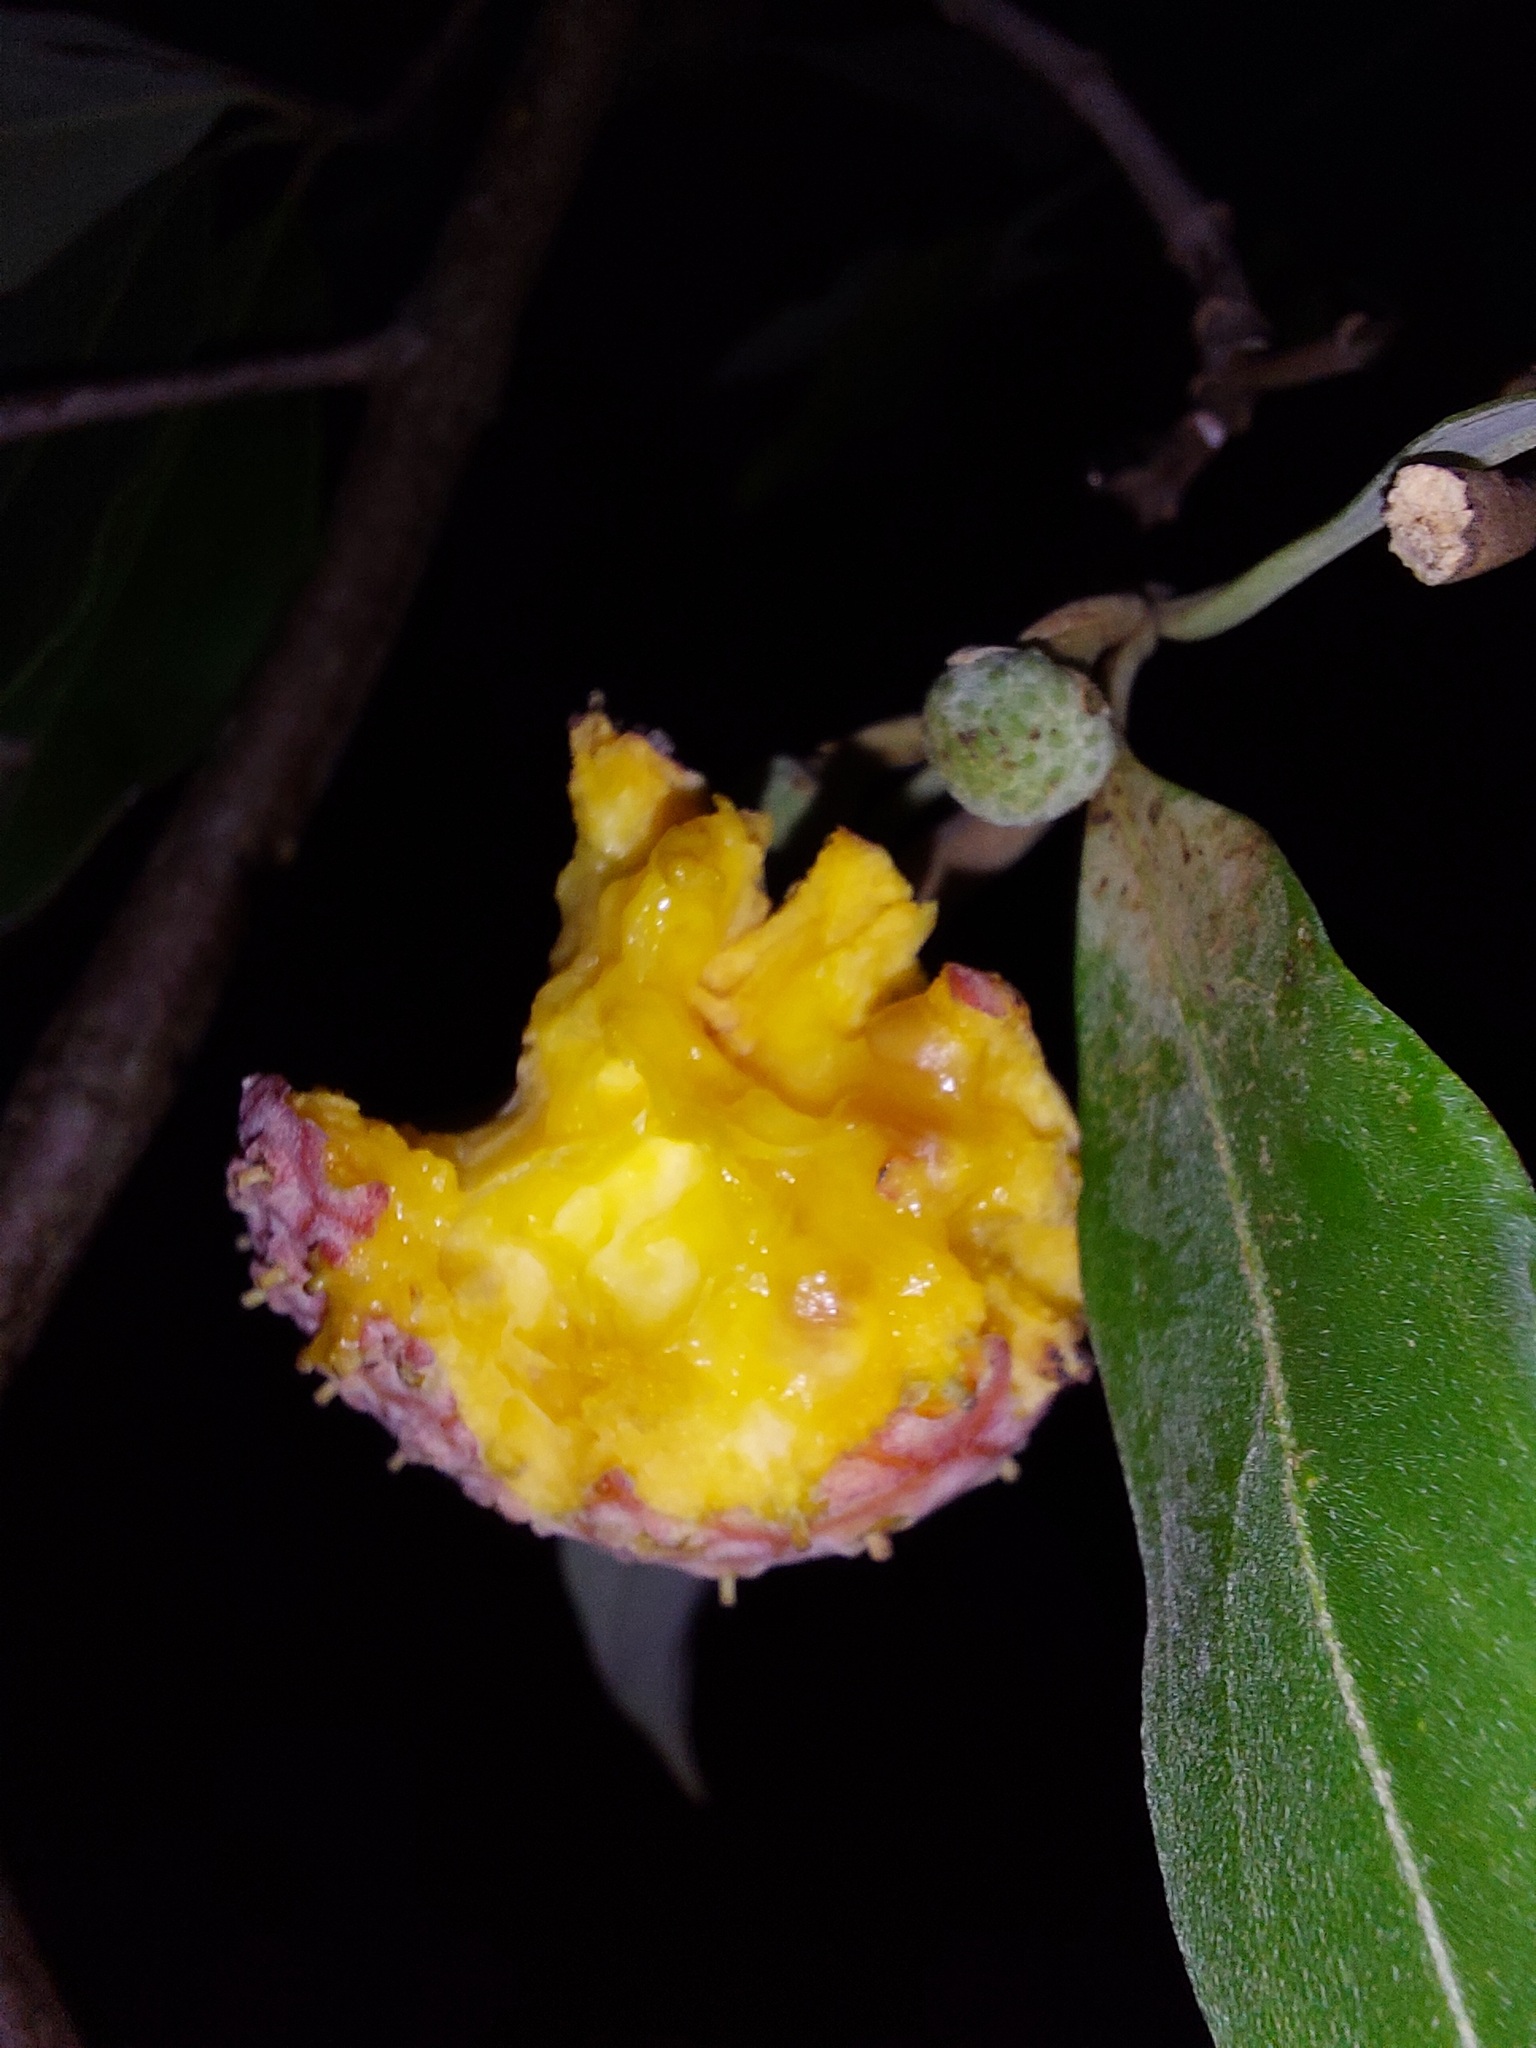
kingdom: Plantae
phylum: Tracheophyta
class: Magnoliopsida
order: Cornales
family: Cornaceae
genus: Cornus
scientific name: Cornus capitata
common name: Bentham's cornel
